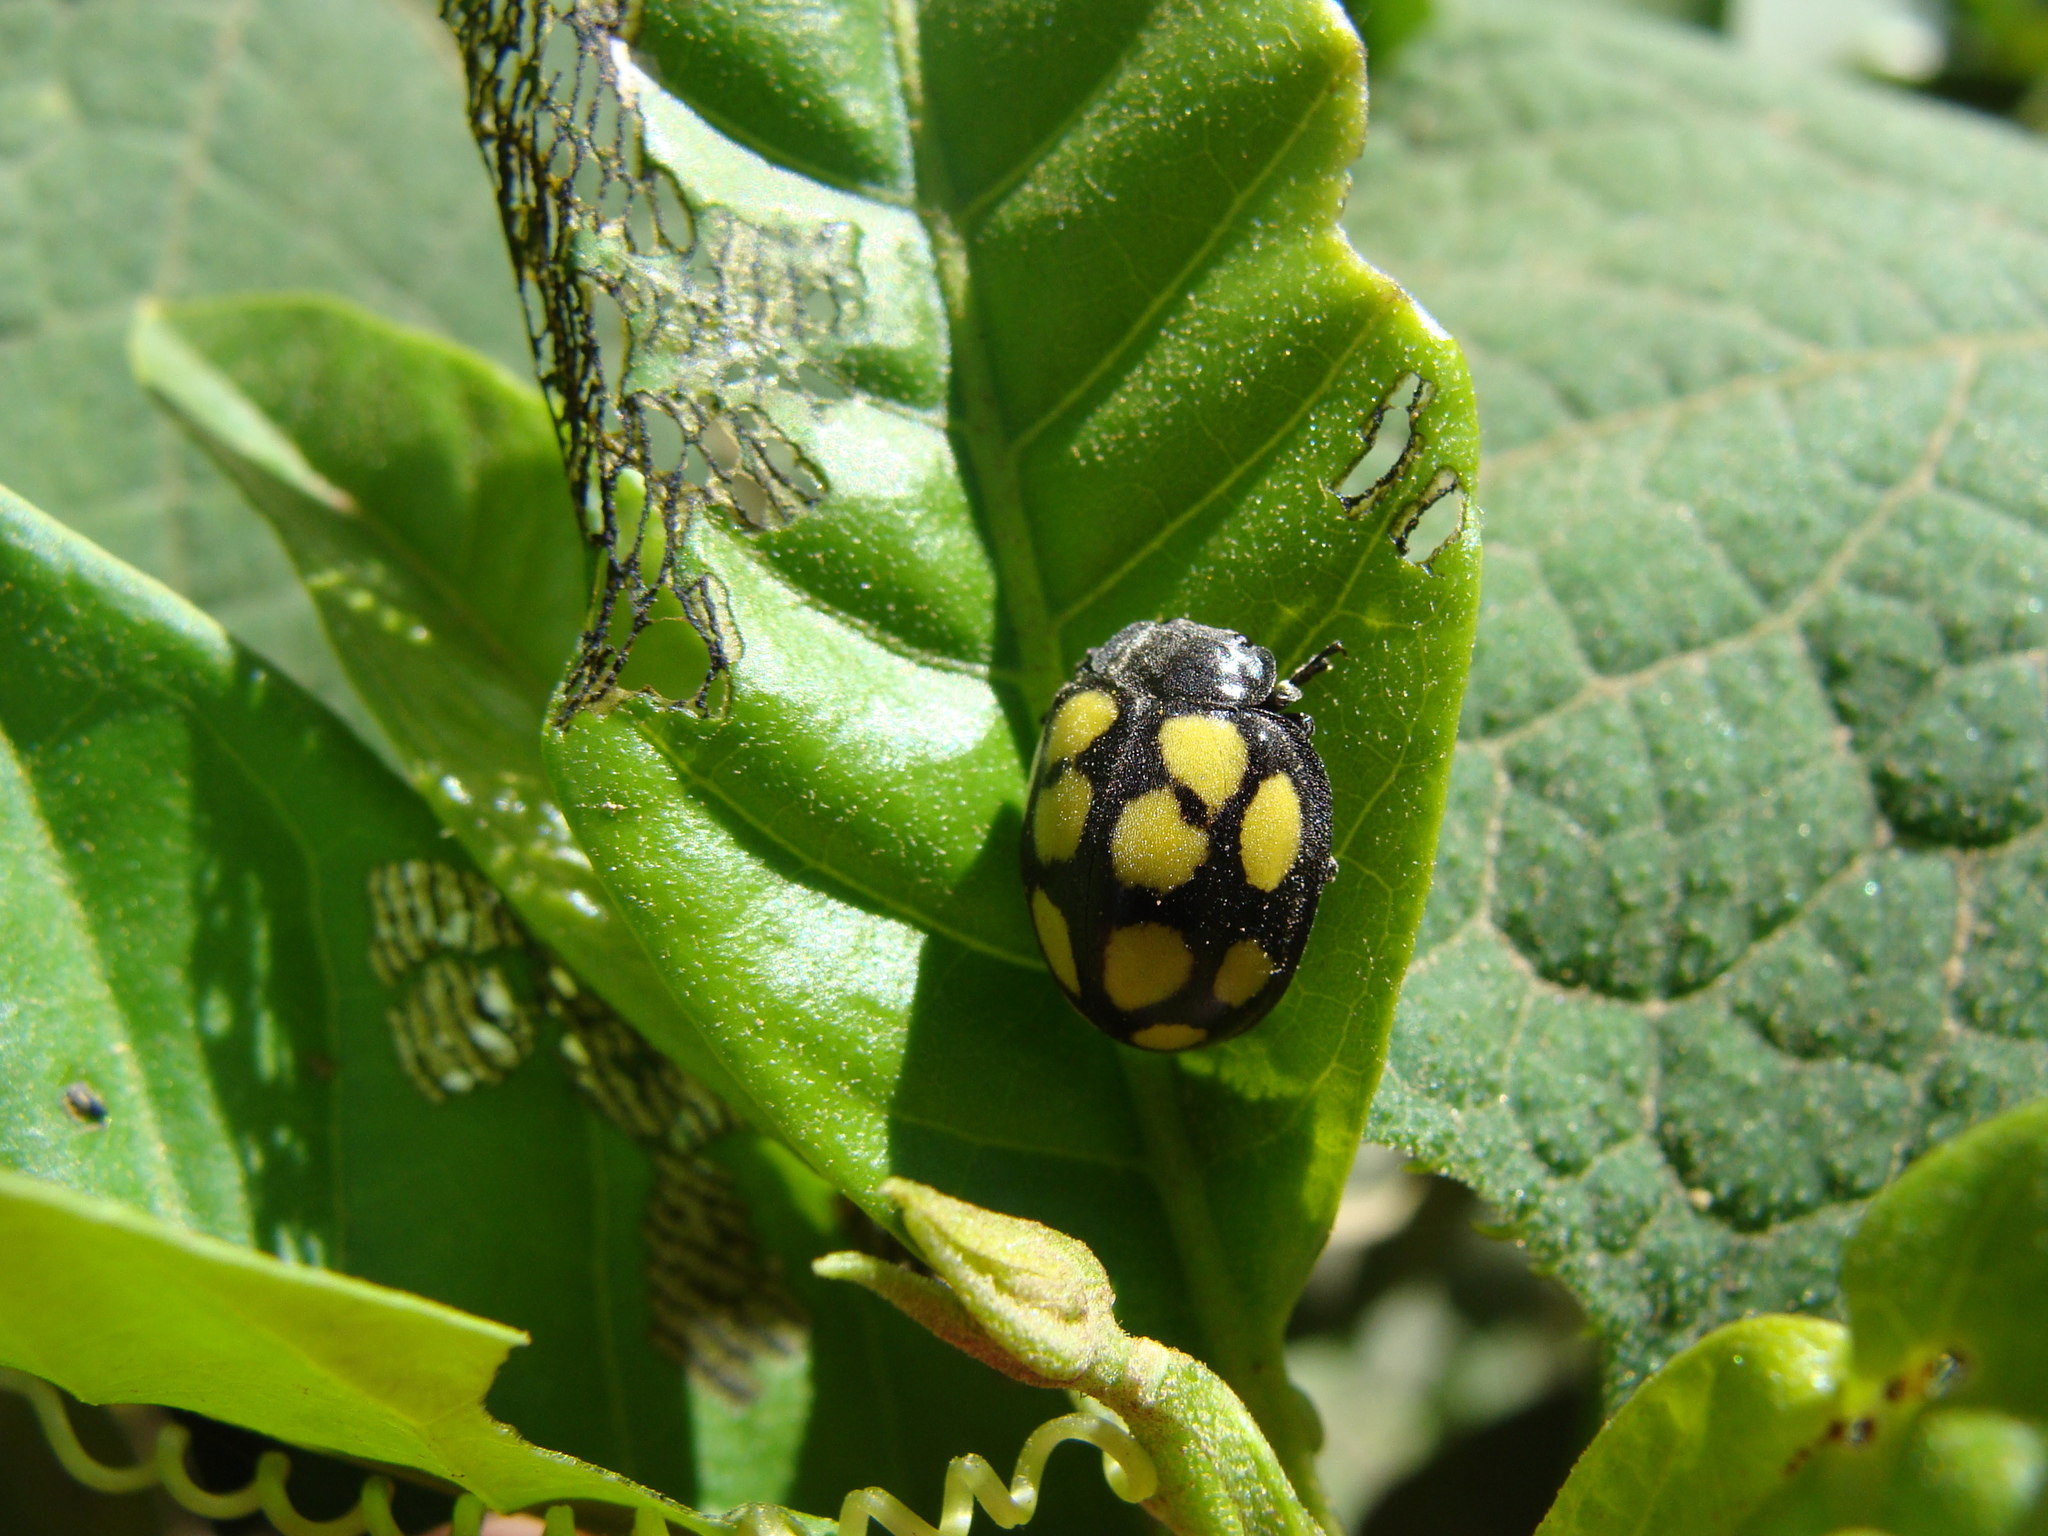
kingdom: Animalia
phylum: Arthropoda
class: Insecta
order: Coleoptera
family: Coccinellidae
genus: Epilachna
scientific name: Epilachna
